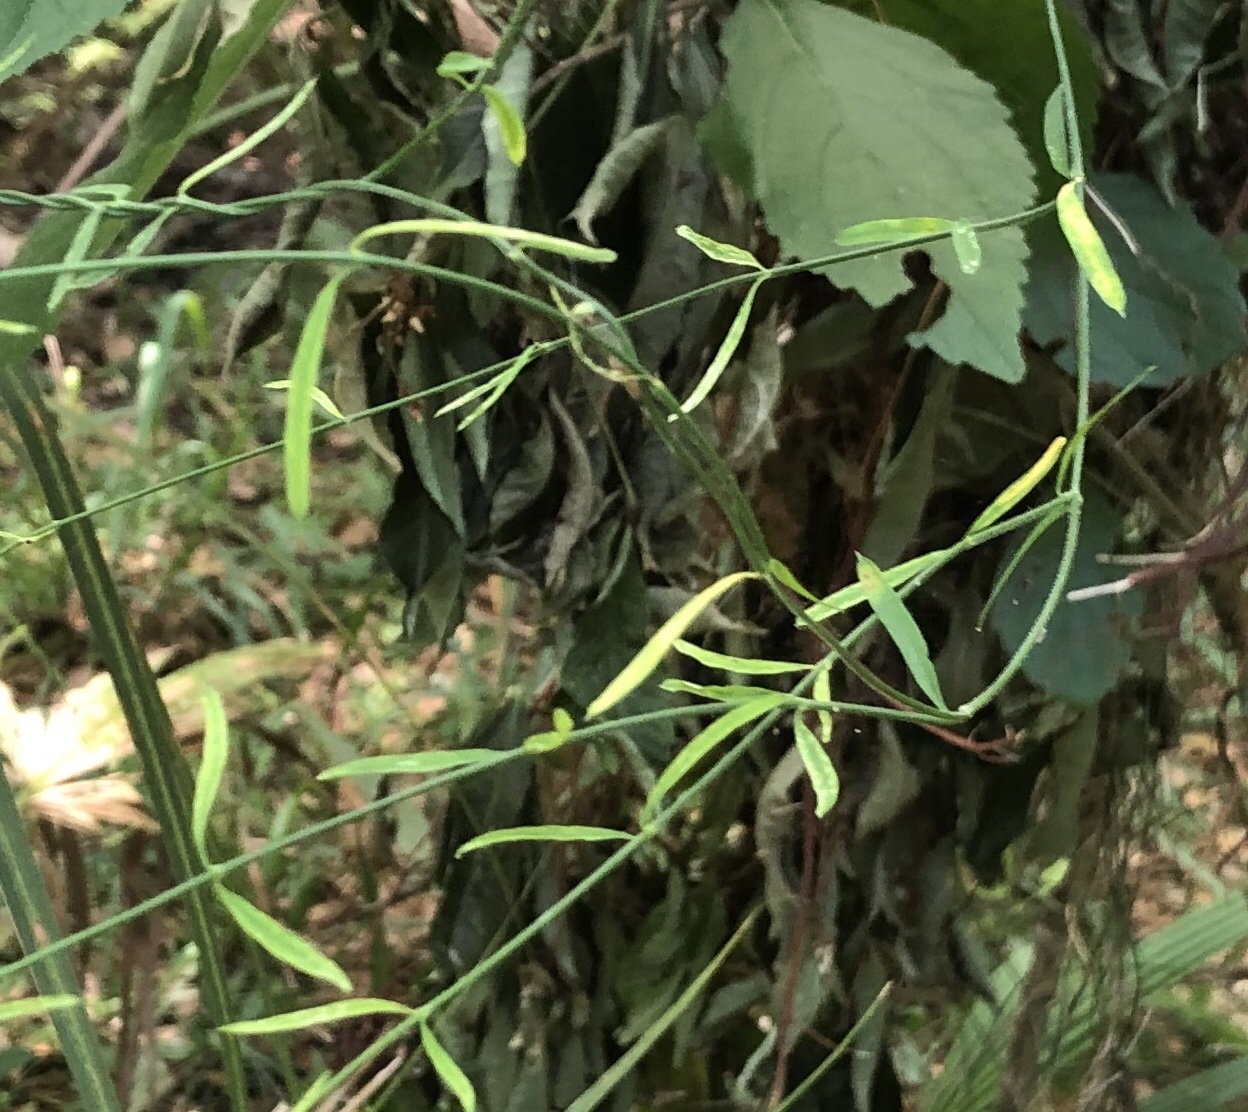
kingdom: Plantae
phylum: Tracheophyta
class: Magnoliopsida
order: Gentianales
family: Apocynaceae
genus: Orthosia
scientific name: Orthosia scoparia
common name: Leafless swallow-wort
